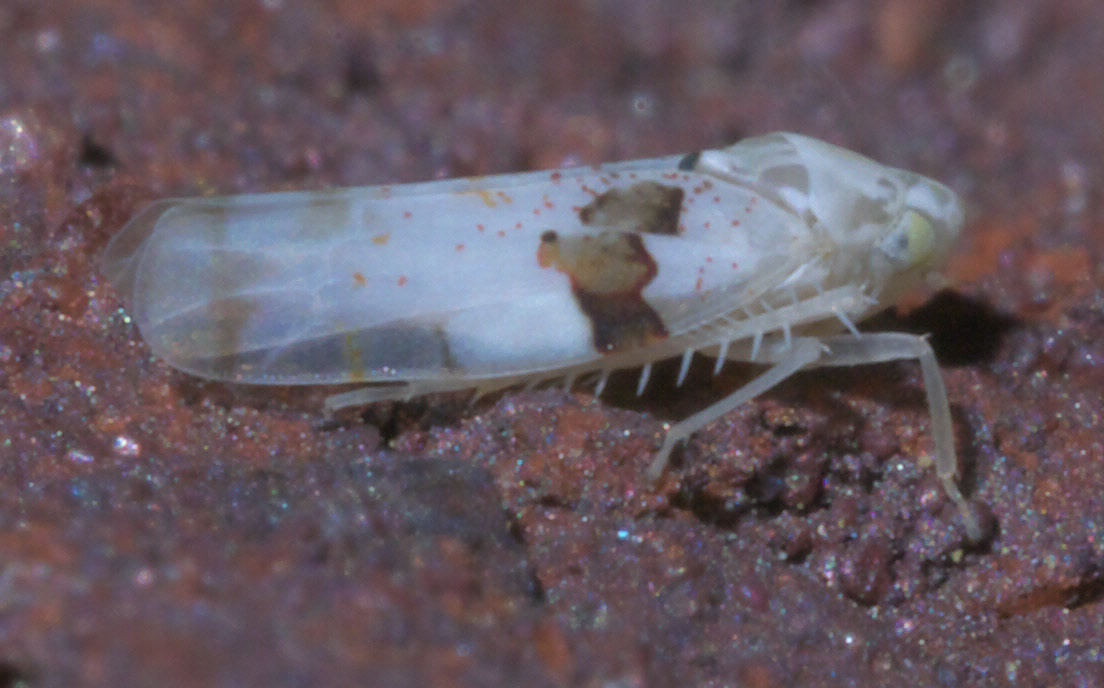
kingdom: Animalia
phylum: Arthropoda
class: Insecta
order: Hemiptera
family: Cicadellidae
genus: Hymetta
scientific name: Hymetta balteata
